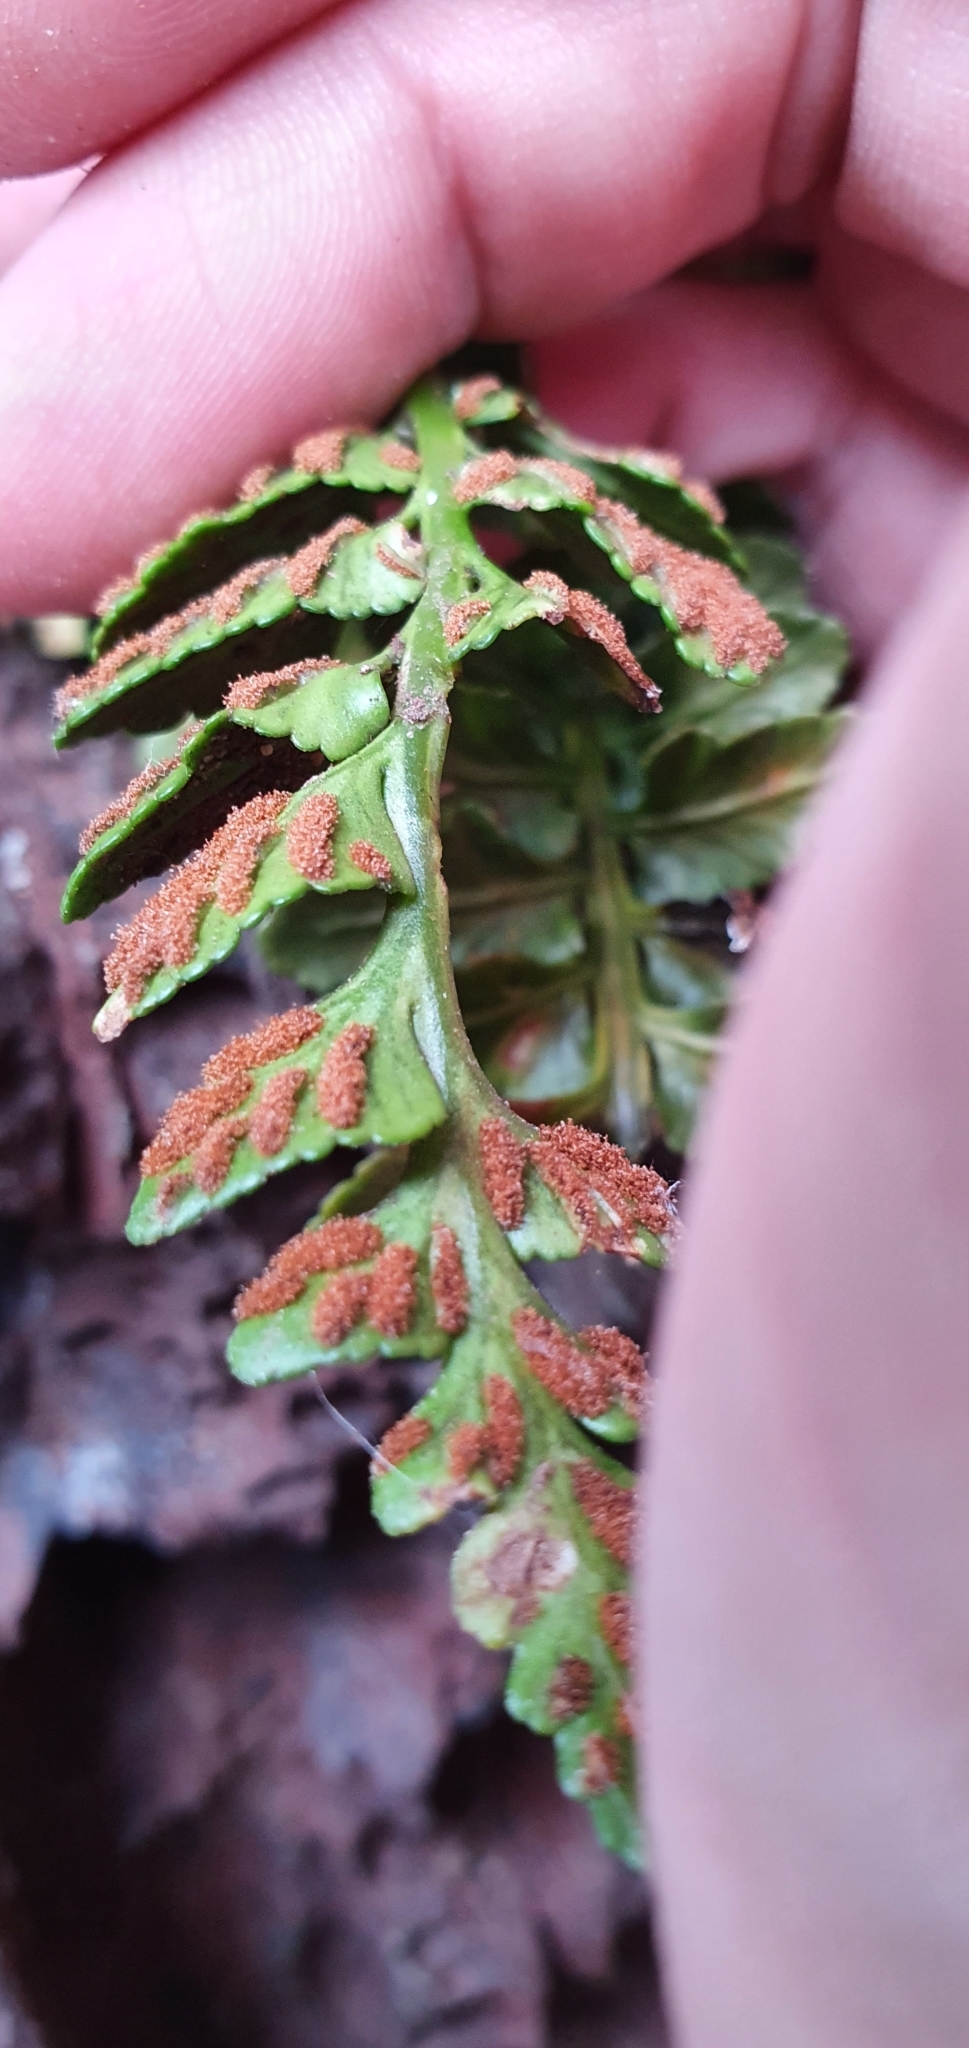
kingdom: Plantae
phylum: Tracheophyta
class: Polypodiopsida
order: Polypodiales
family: Aspleniaceae
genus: Asplenium
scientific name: Asplenium marinum
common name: Sea spleenwort
